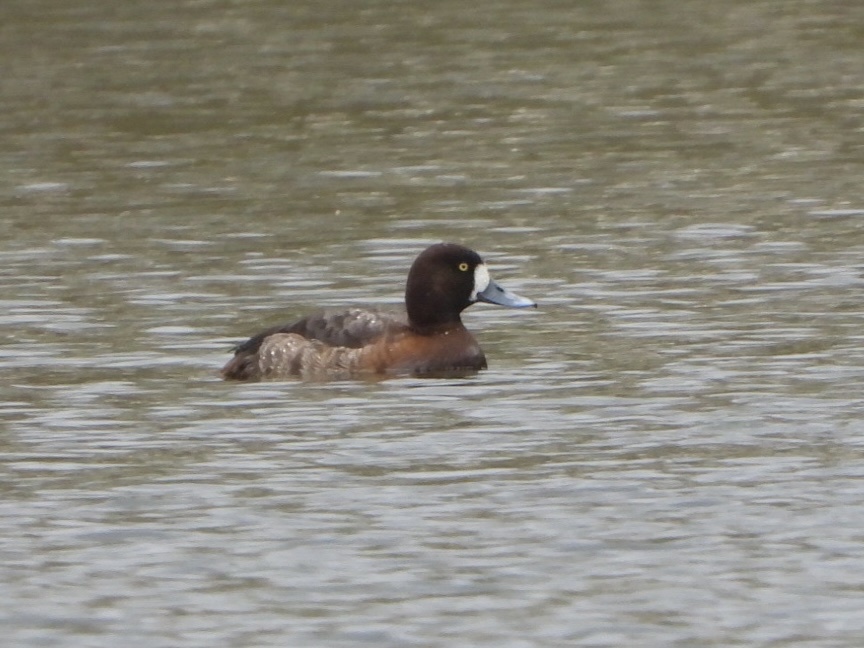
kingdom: Animalia
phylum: Chordata
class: Aves
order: Anseriformes
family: Anatidae
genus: Aythya
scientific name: Aythya marila
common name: Greater scaup
